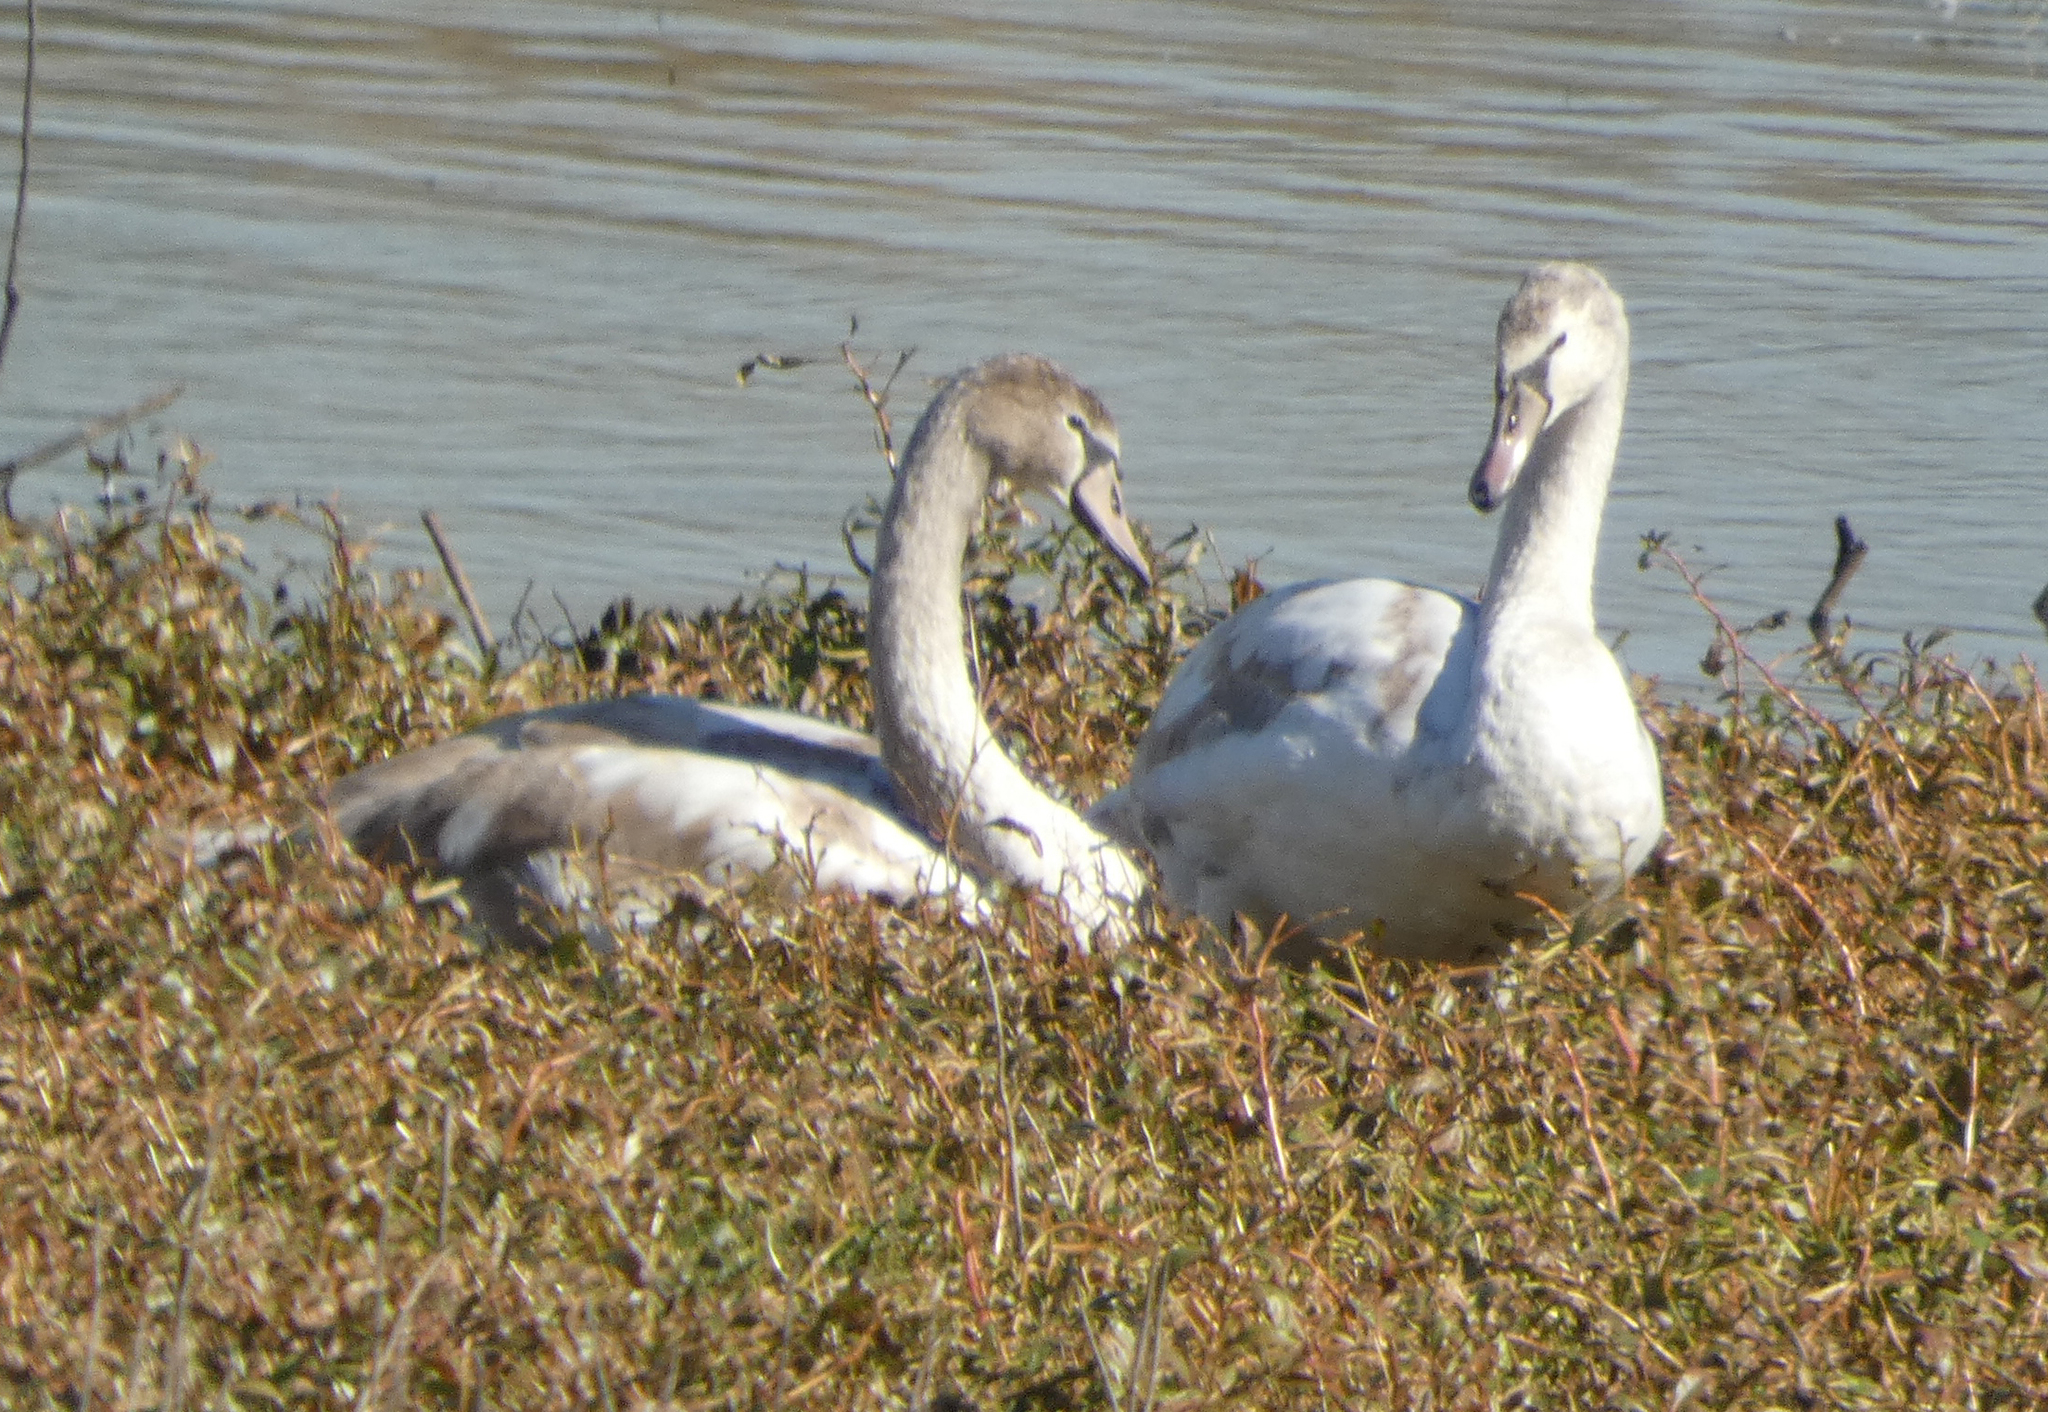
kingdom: Animalia
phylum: Chordata
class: Aves
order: Anseriformes
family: Anatidae
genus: Cygnus
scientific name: Cygnus olor
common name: Mute swan
